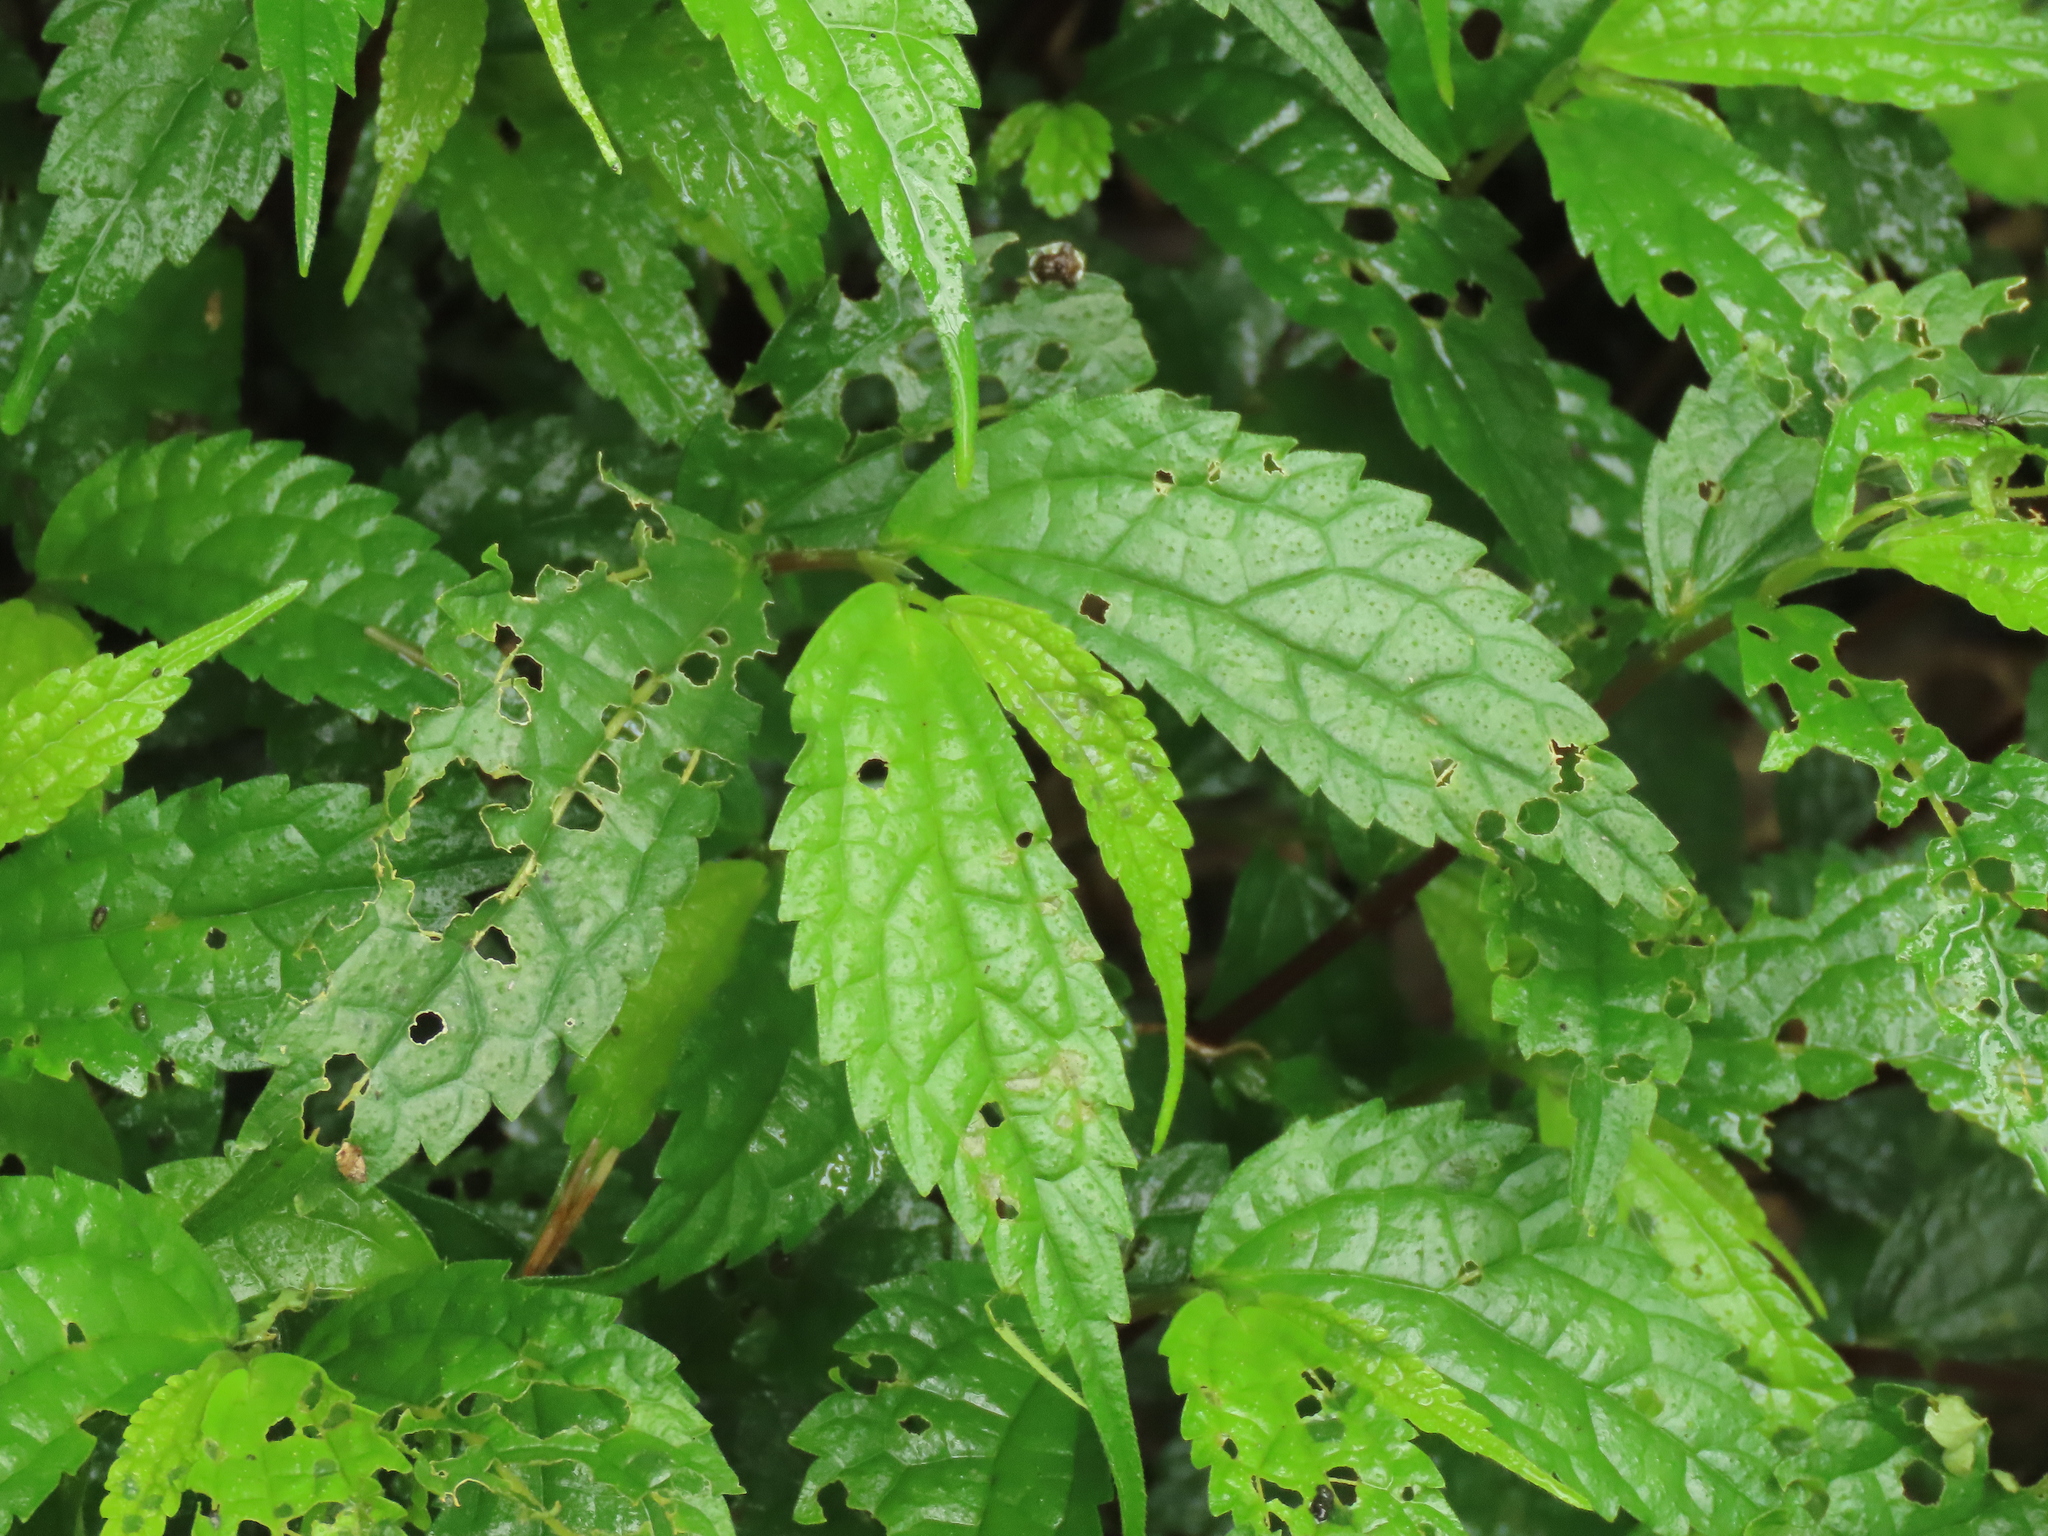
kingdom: Plantae
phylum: Tracheophyta
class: Magnoliopsida
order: Rosales
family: Urticaceae
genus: Elatostema
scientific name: Elatostema cyrtandrifolium
